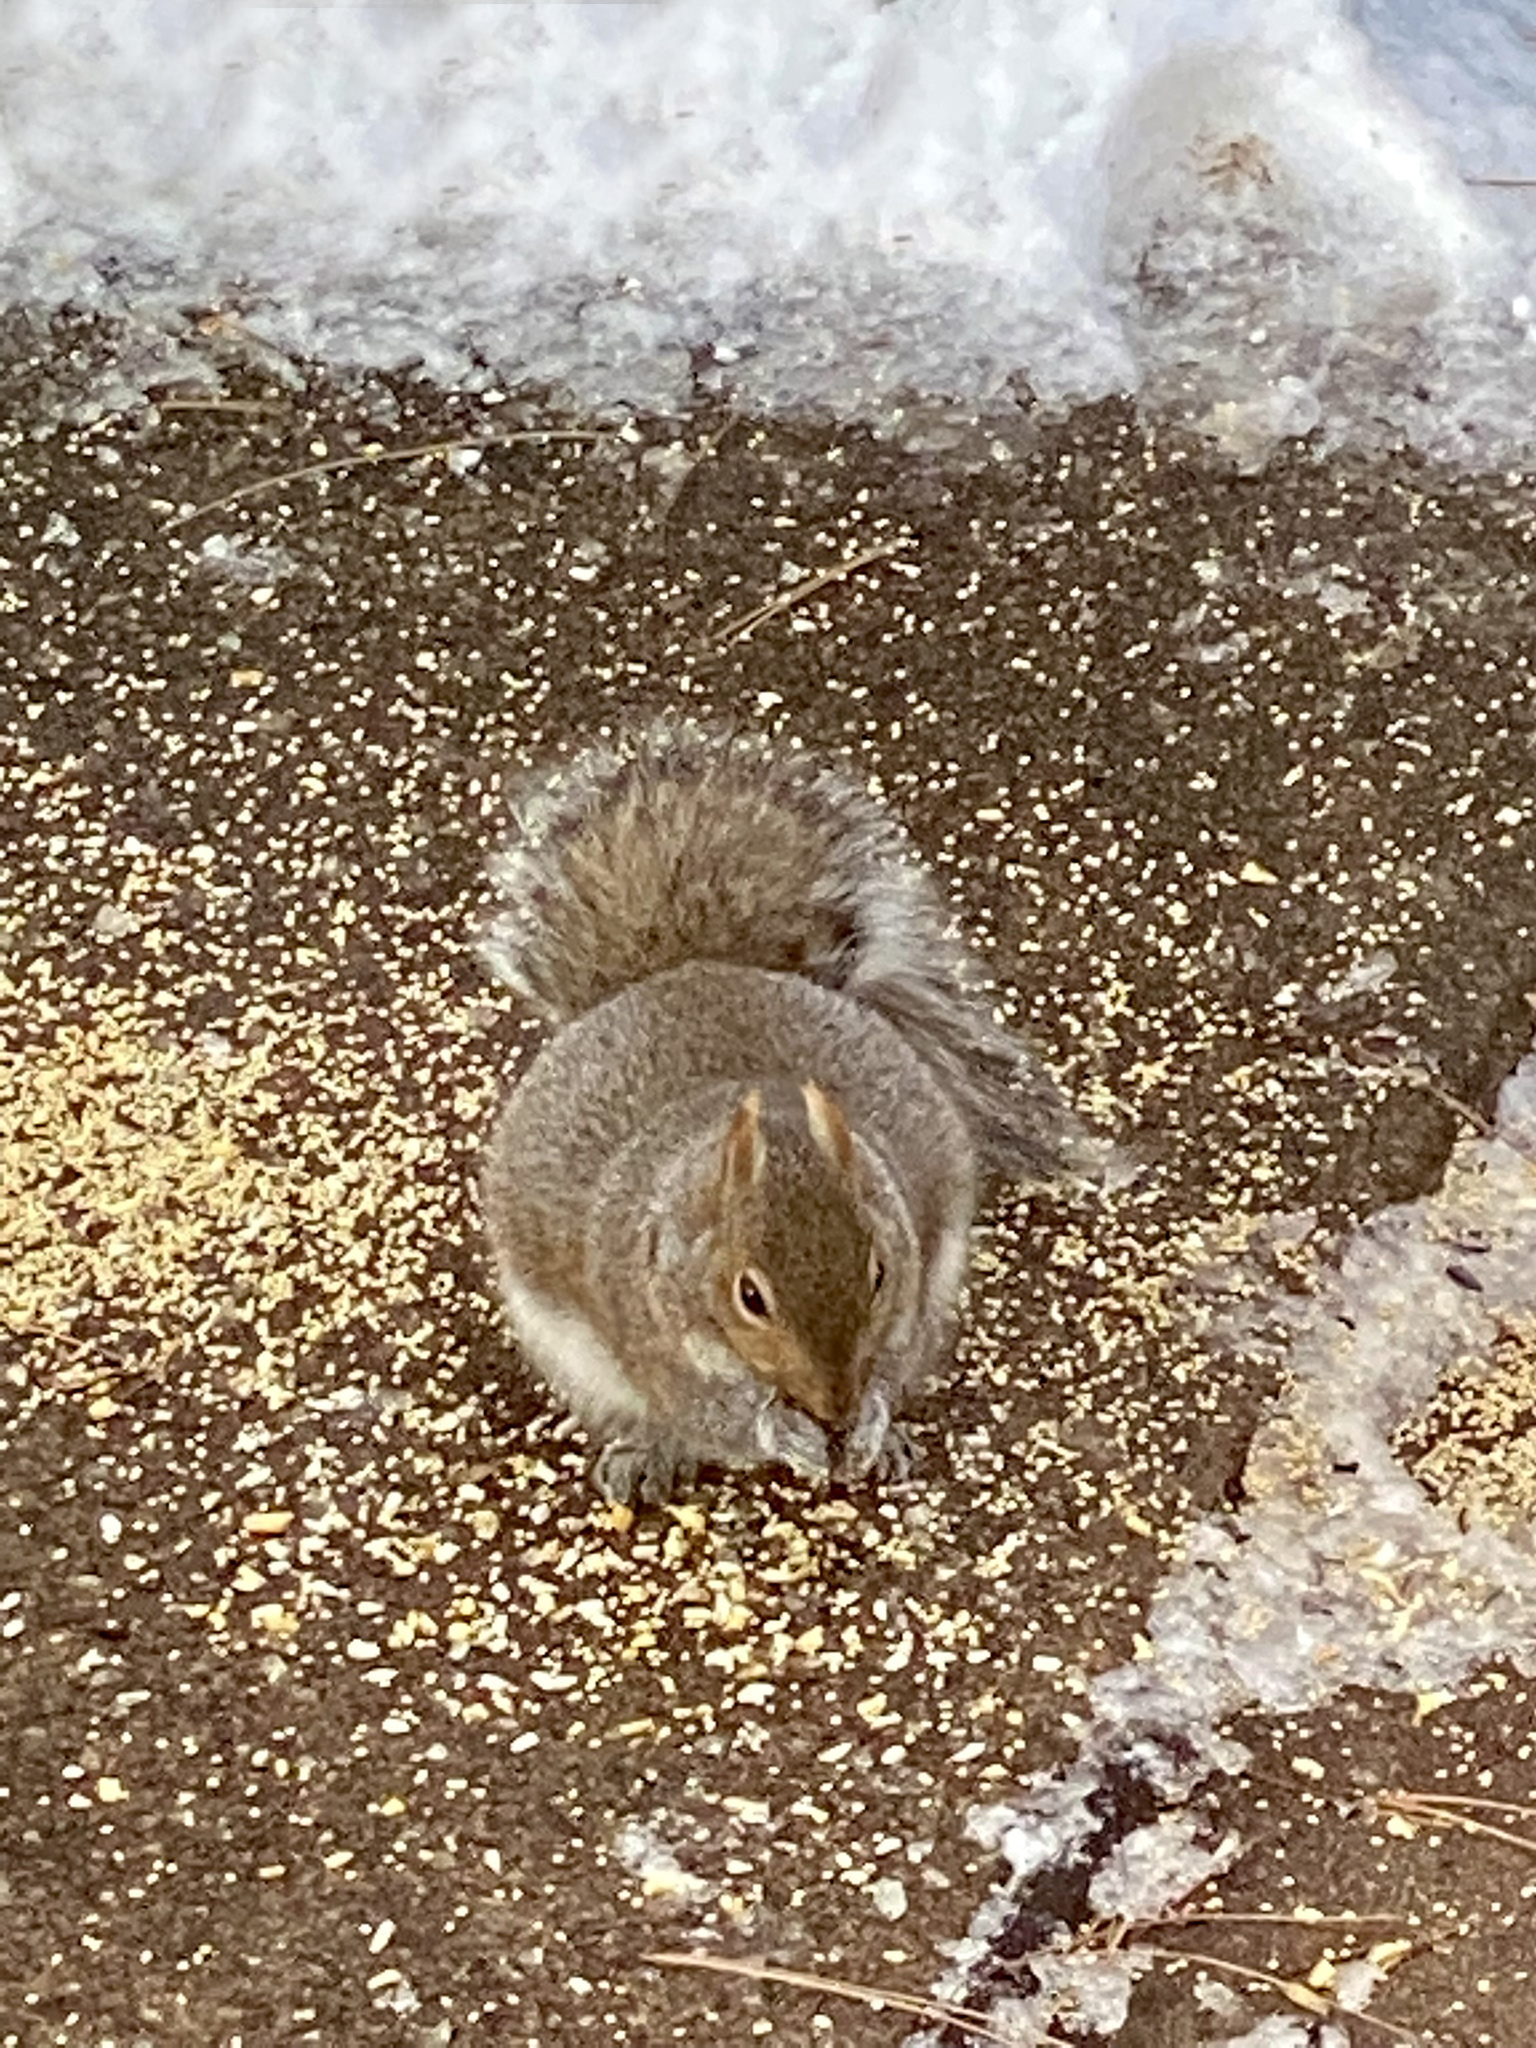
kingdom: Animalia
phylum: Chordata
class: Mammalia
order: Rodentia
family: Sciuridae
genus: Sciurus
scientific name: Sciurus carolinensis
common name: Eastern gray squirrel
